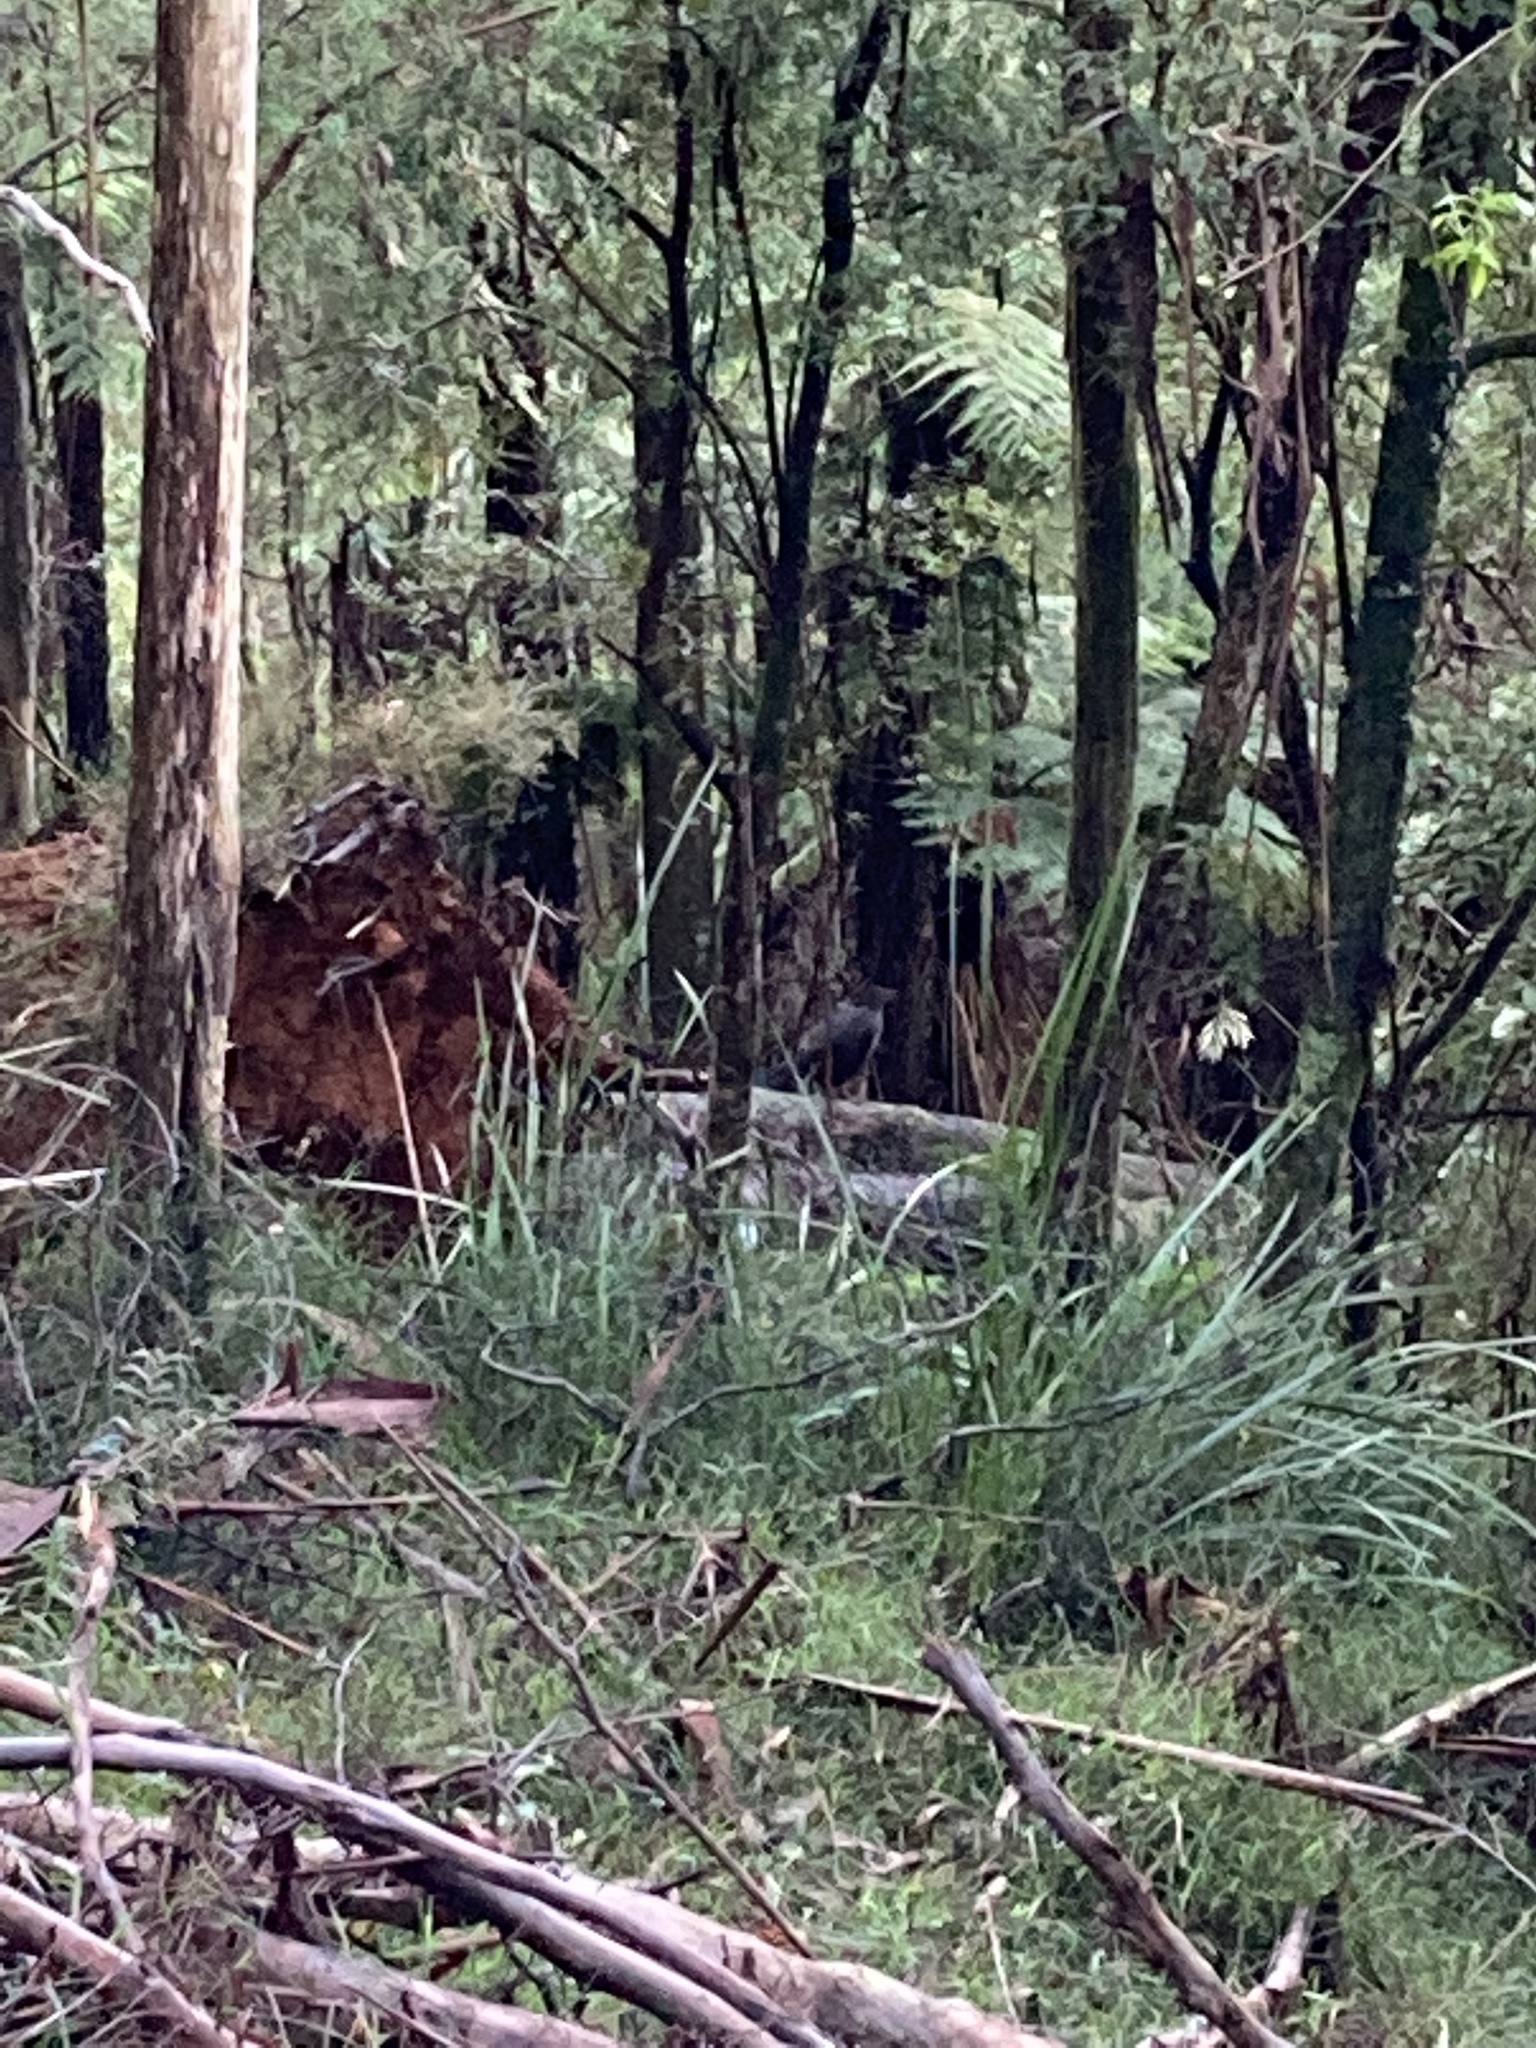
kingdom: Animalia
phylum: Chordata
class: Aves
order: Passeriformes
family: Menuridae
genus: Menura
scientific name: Menura novaehollandiae
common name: Superb lyrebird
